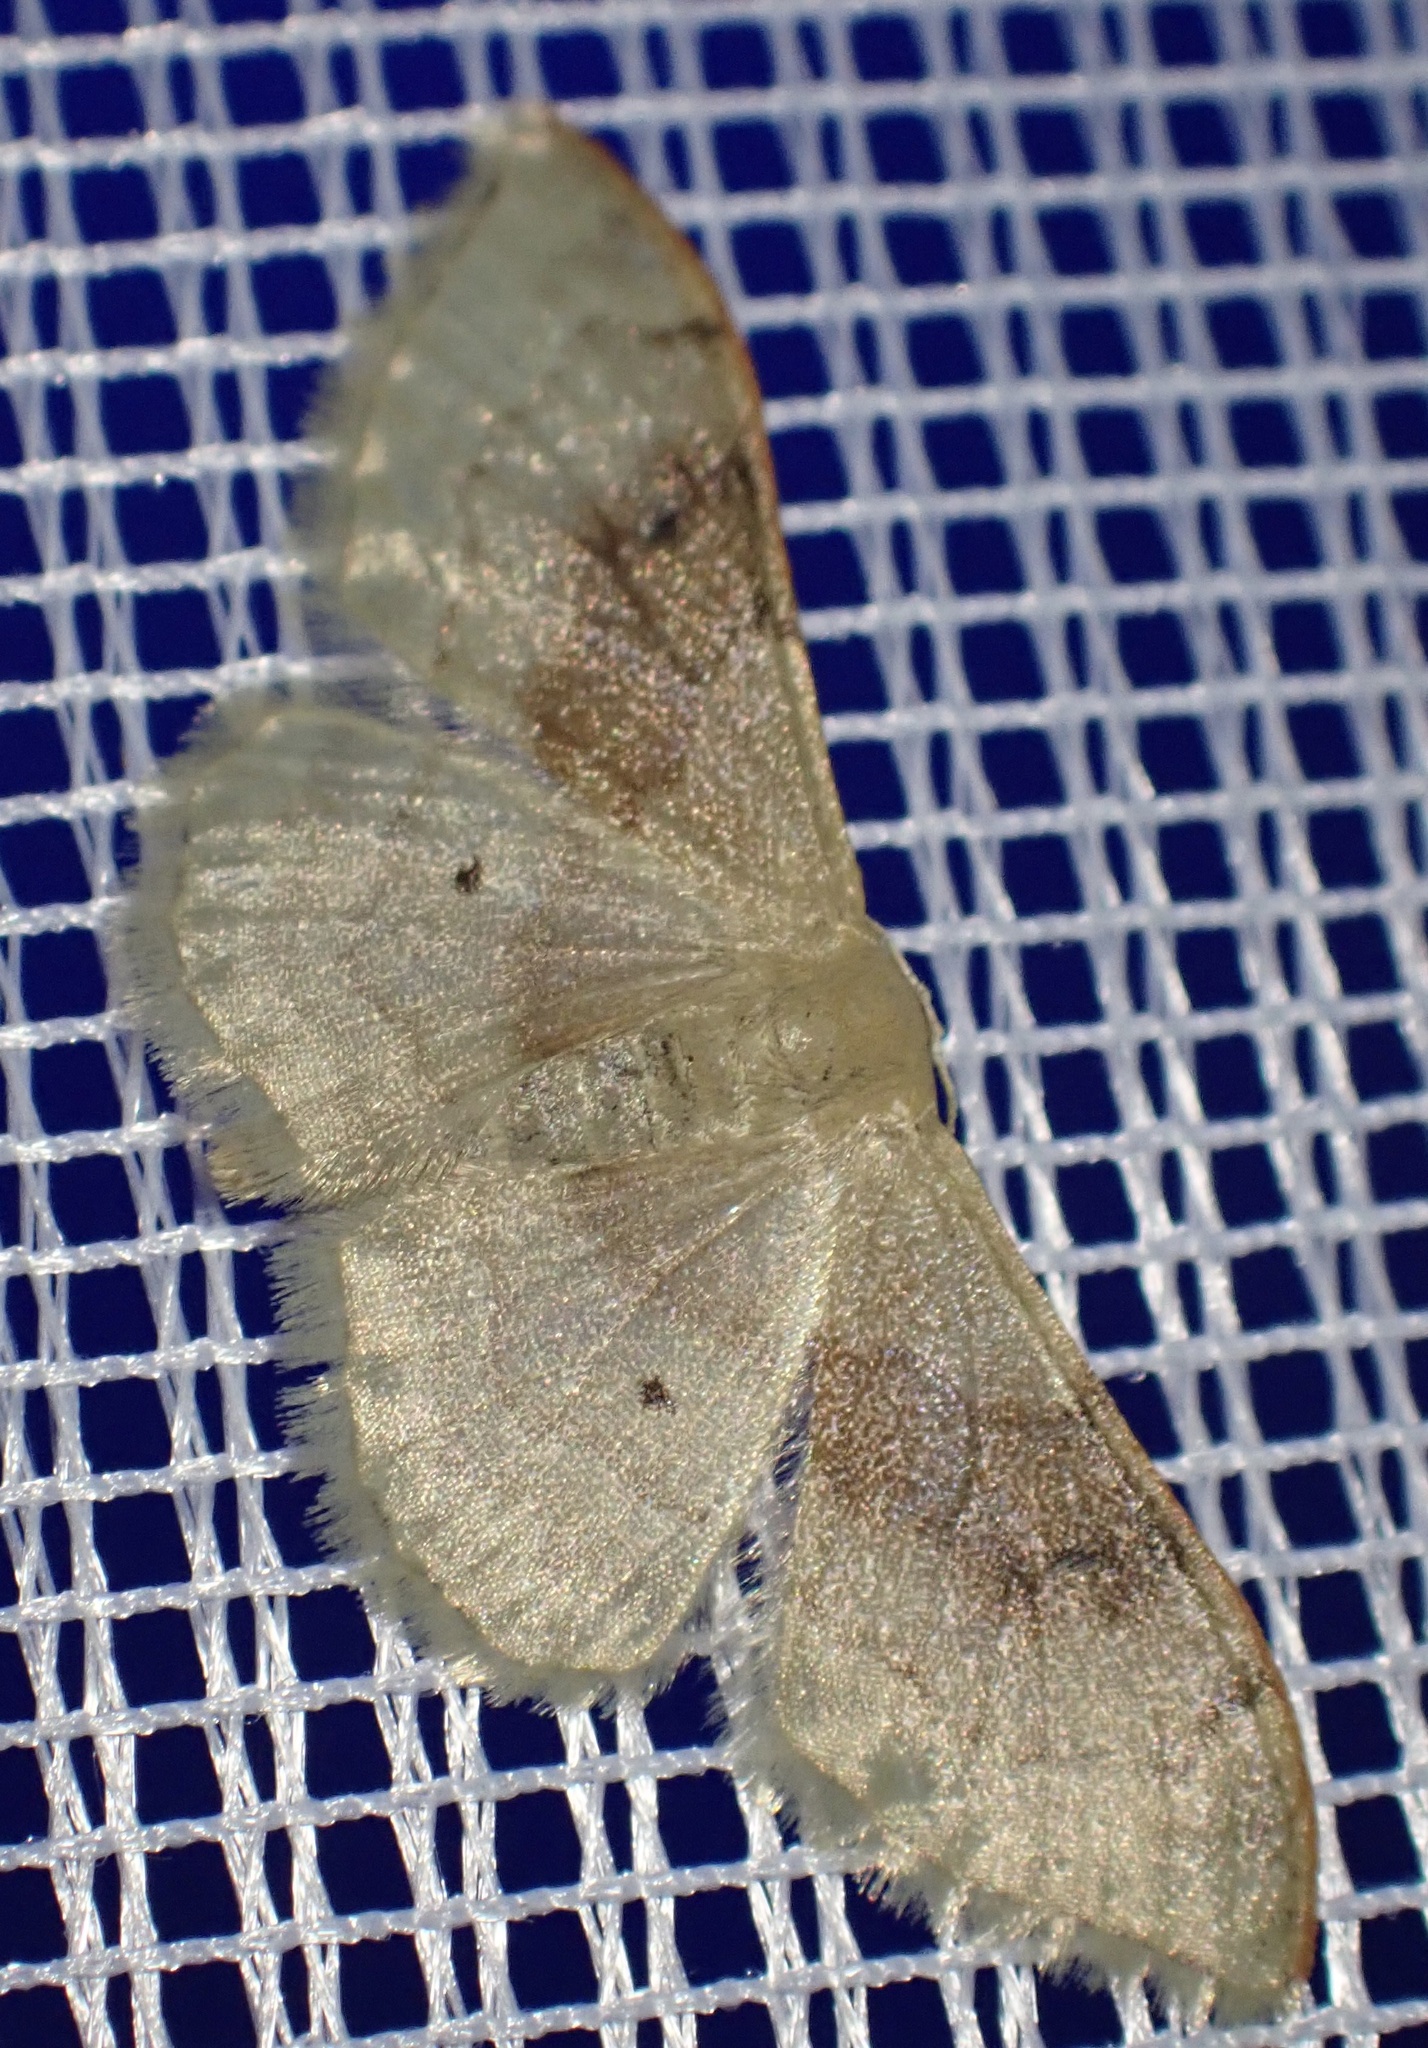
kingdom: Animalia
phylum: Arthropoda
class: Insecta
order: Lepidoptera
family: Geometridae
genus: Idaea
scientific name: Idaea degeneraria
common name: Portland ribbon wave
